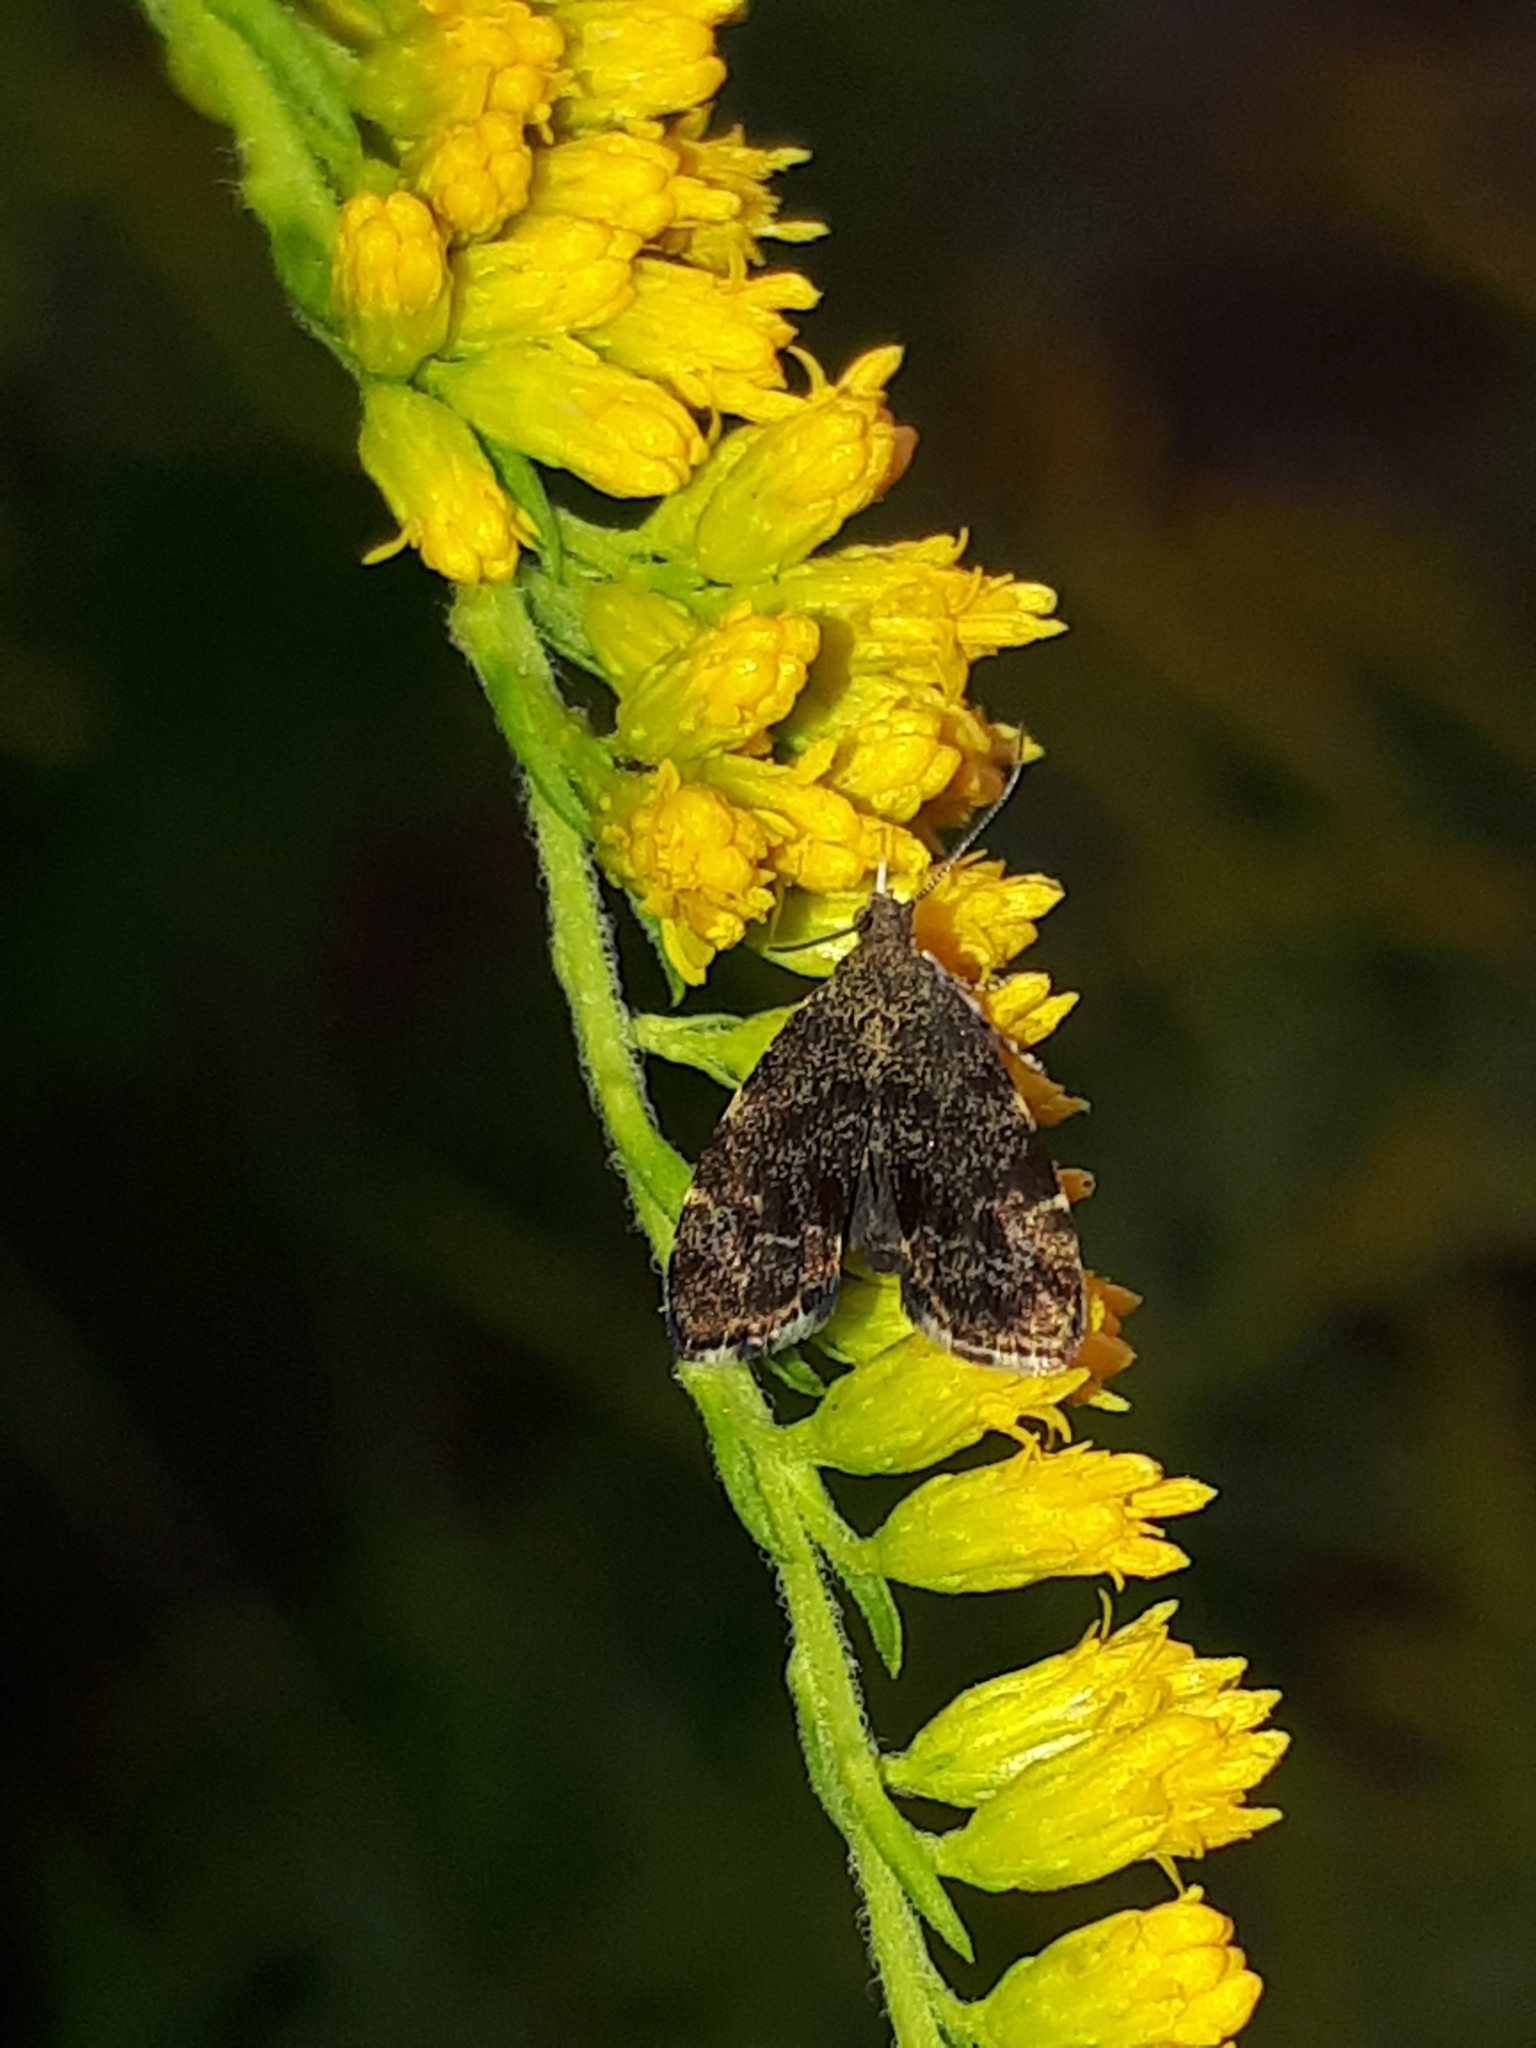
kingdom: Animalia
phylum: Arthropoda
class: Insecta
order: Lepidoptera
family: Choreutidae
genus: Anthophila
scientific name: Anthophila fabriciana
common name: Nettle-tap
